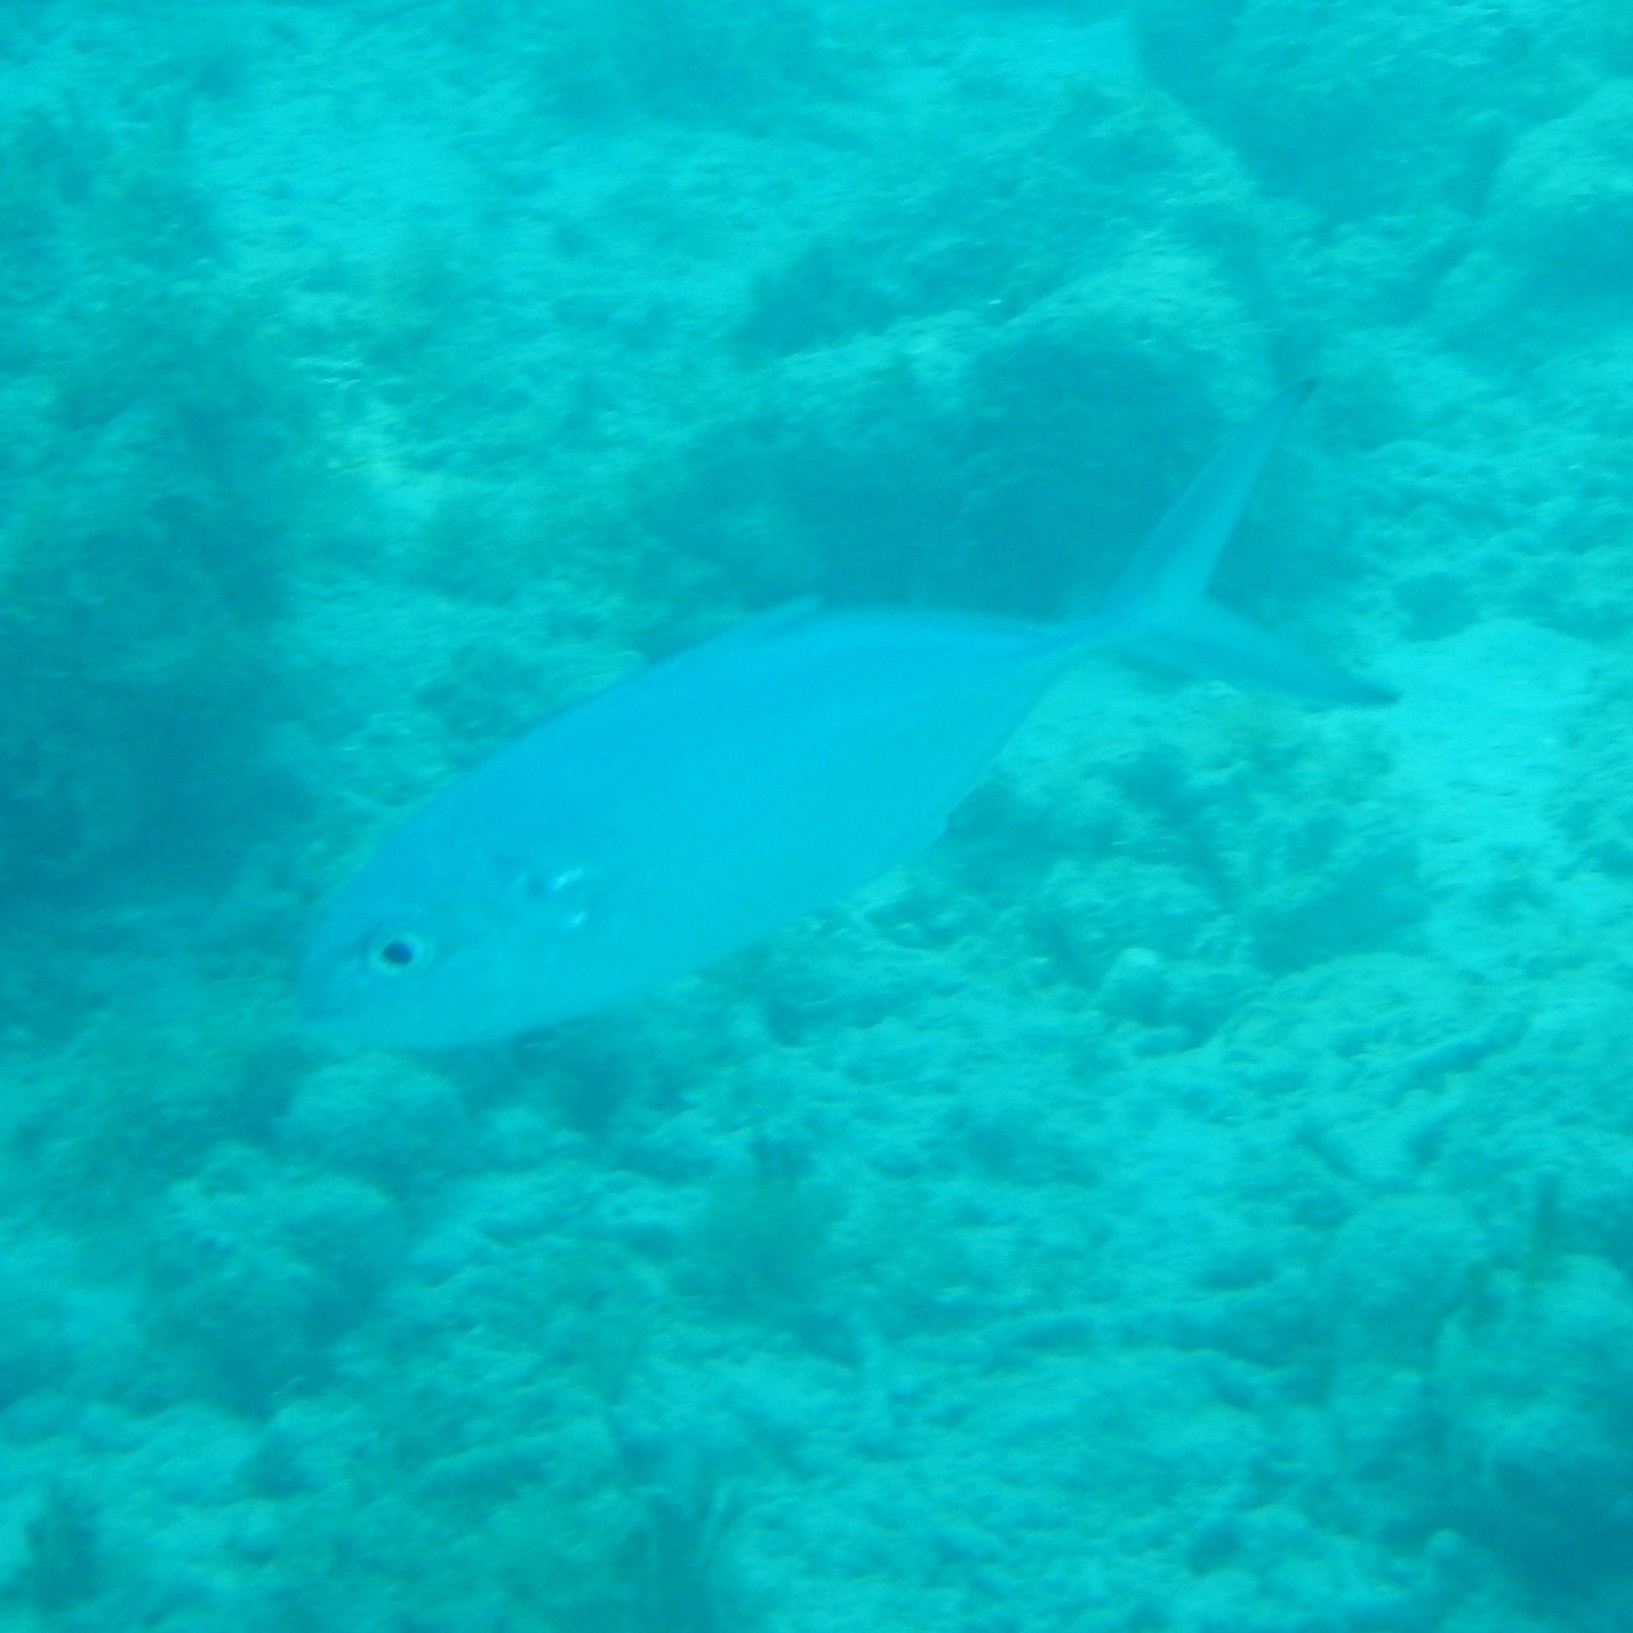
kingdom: Animalia
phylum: Chordata
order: Perciformes
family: Carangidae
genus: Caranx
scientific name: Caranx crysos
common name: Blue runner
